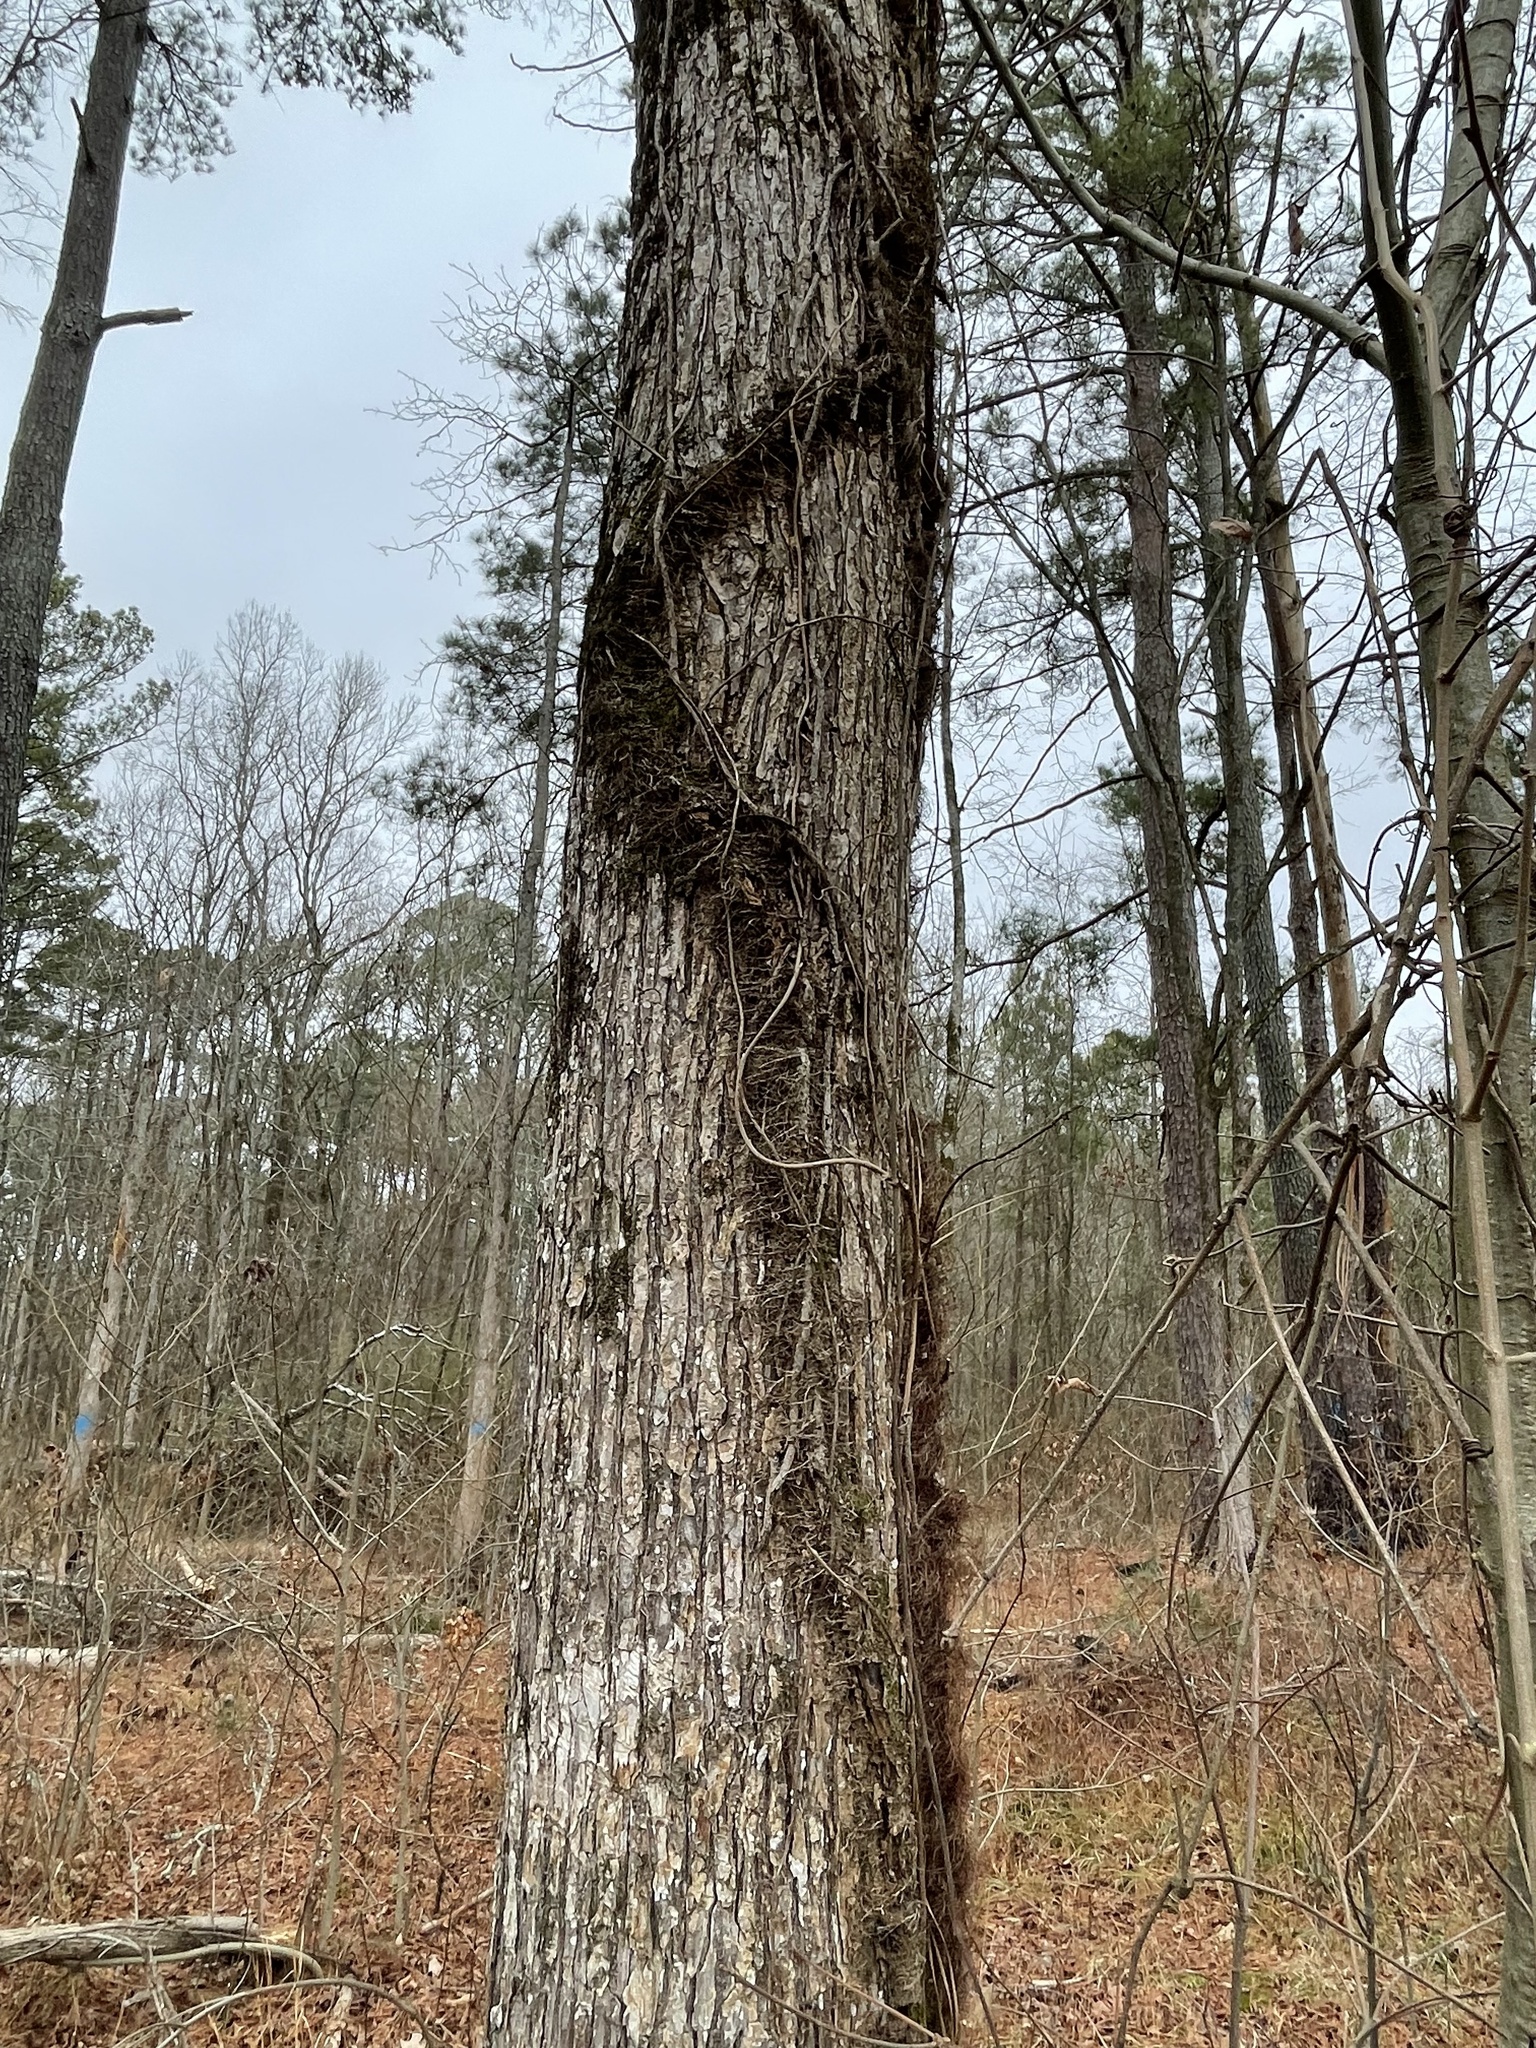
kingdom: Plantae
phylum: Tracheophyta
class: Magnoliopsida
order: Sapindales
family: Anacardiaceae
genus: Toxicodendron
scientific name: Toxicodendron radicans
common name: Poison ivy
